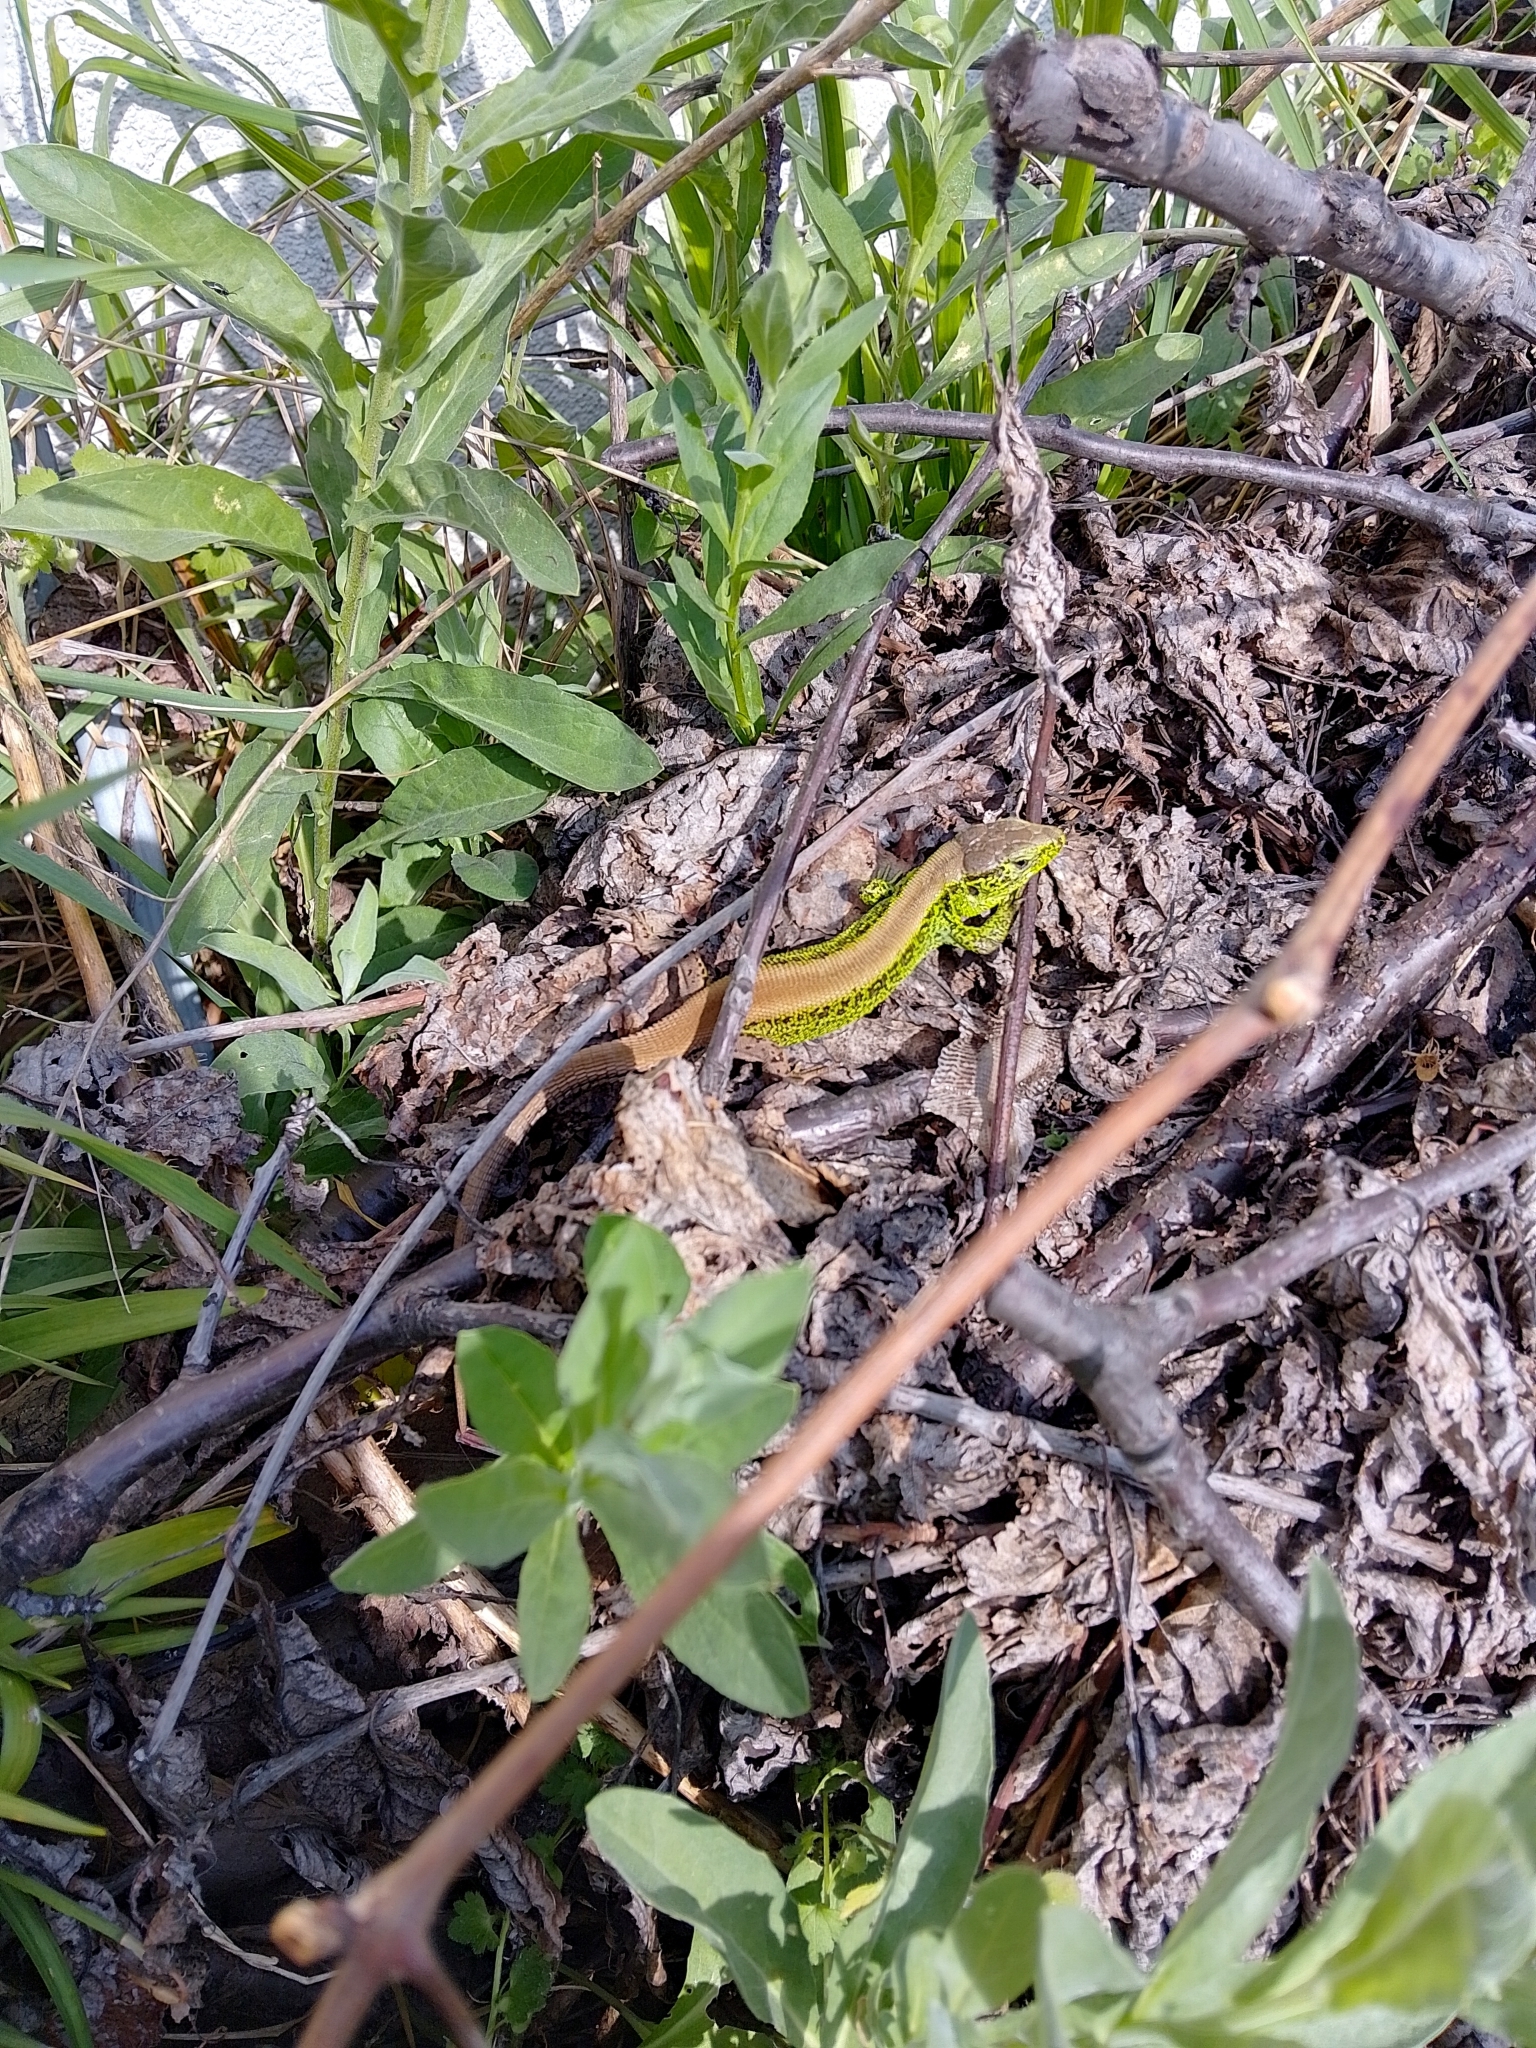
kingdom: Animalia
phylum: Chordata
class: Squamata
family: Lacertidae
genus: Lacerta
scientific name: Lacerta agilis
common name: Sand lizard
